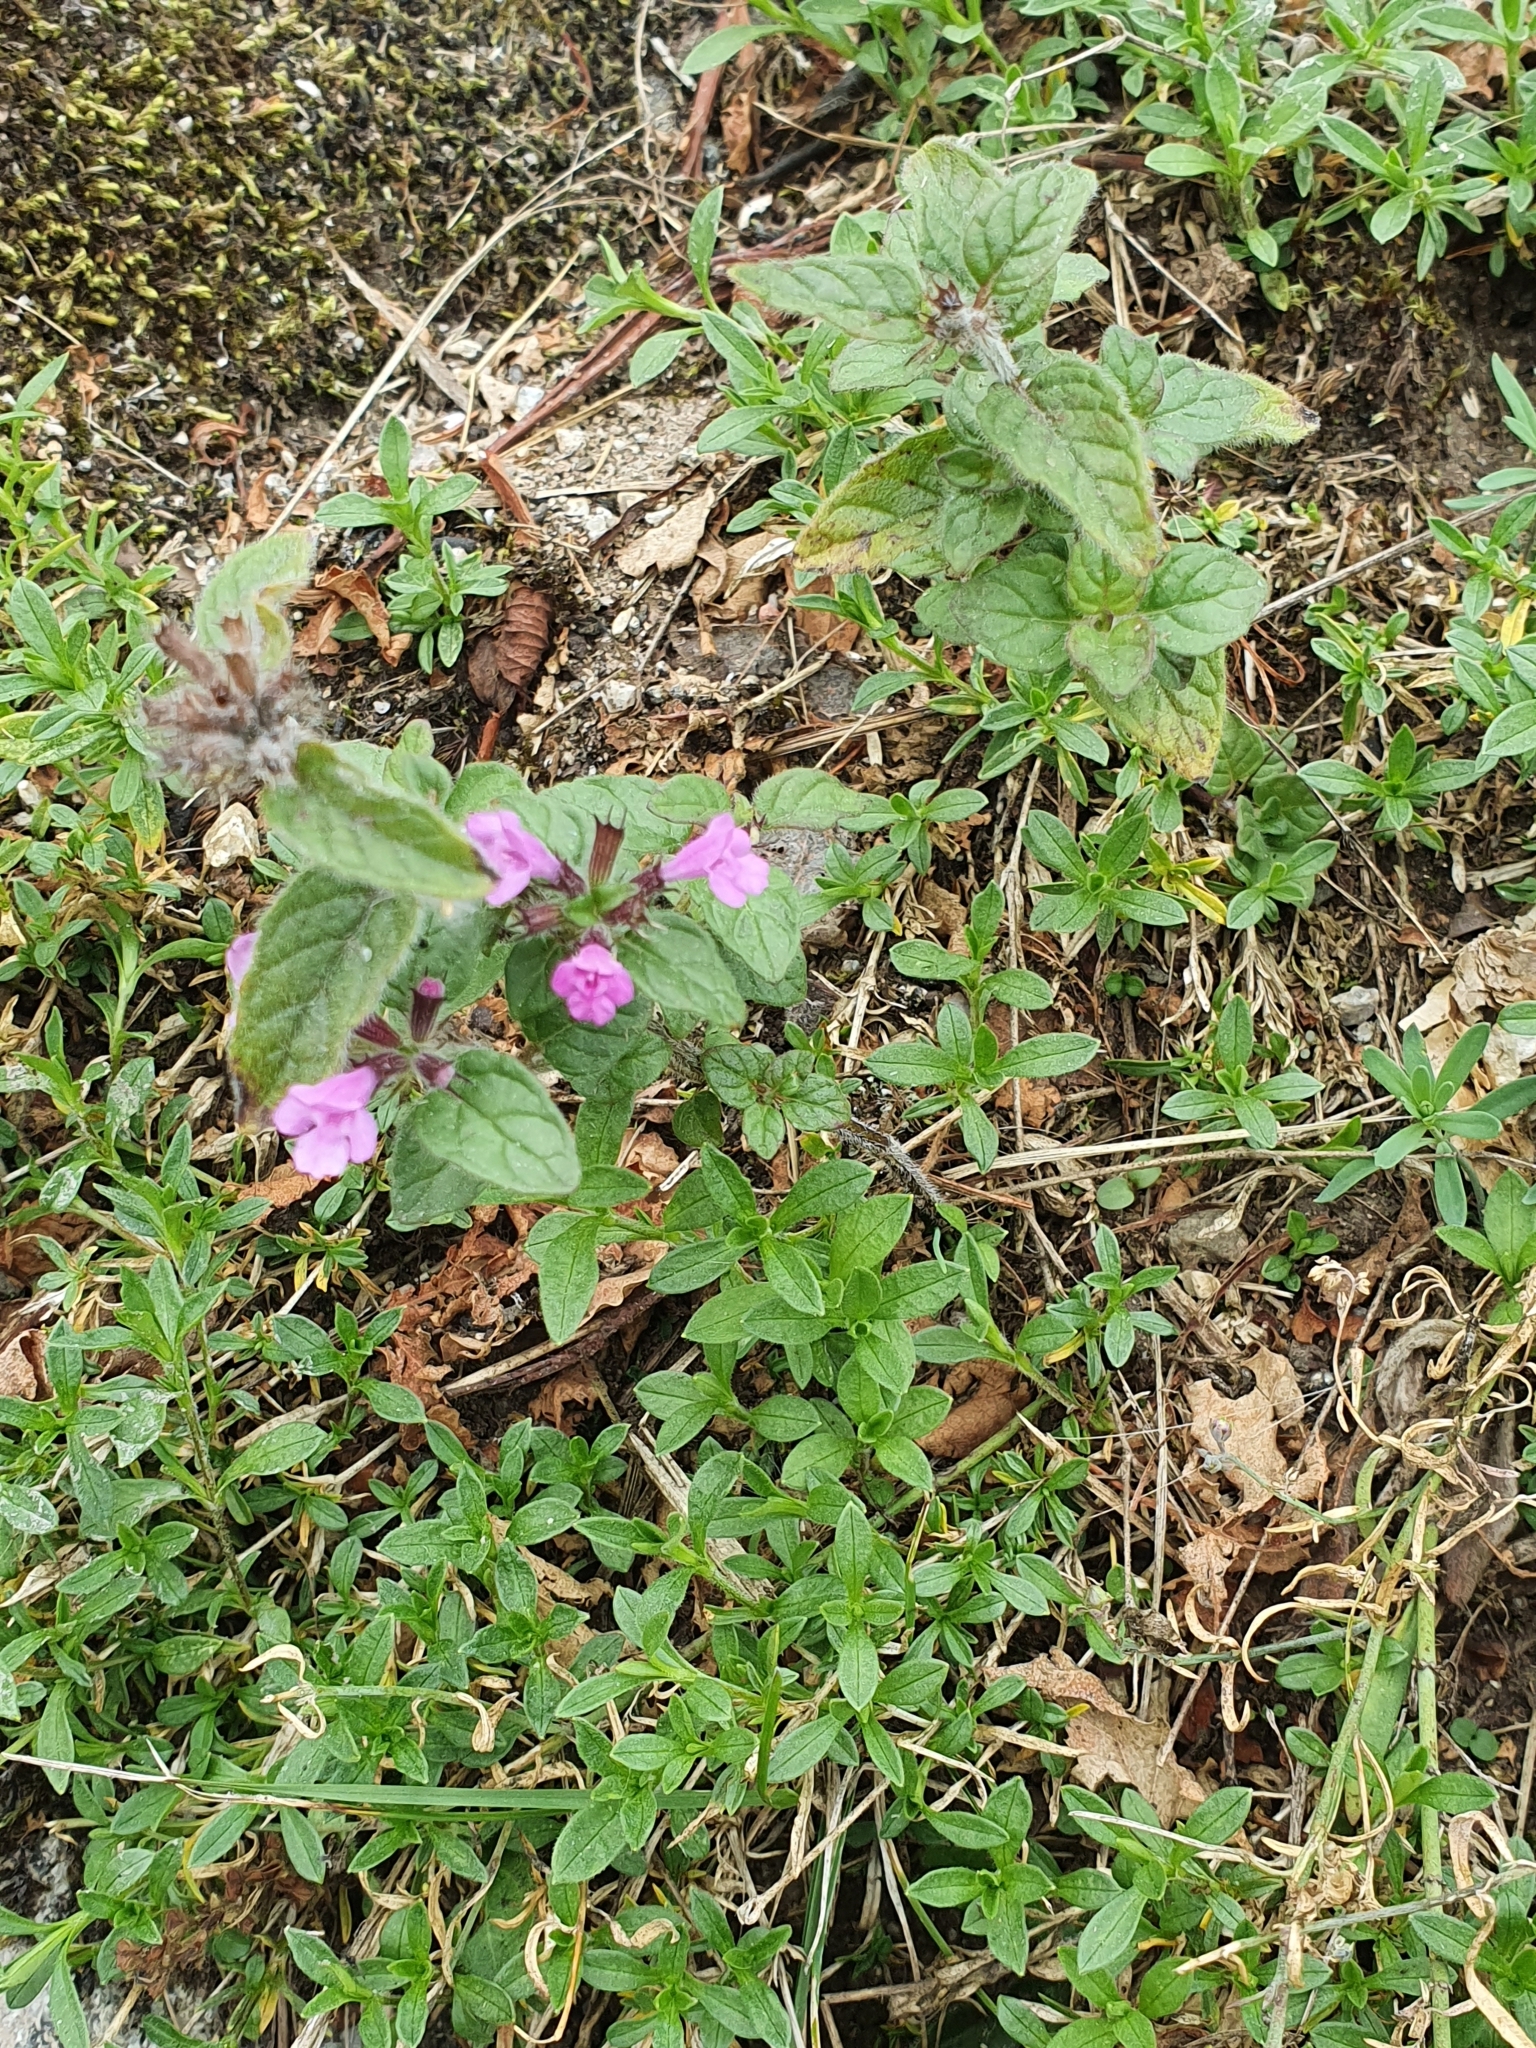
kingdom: Plantae
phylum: Tracheophyta
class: Magnoliopsida
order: Lamiales
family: Lamiaceae
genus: Clinopodium
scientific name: Clinopodium vulgare
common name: Wild basil
